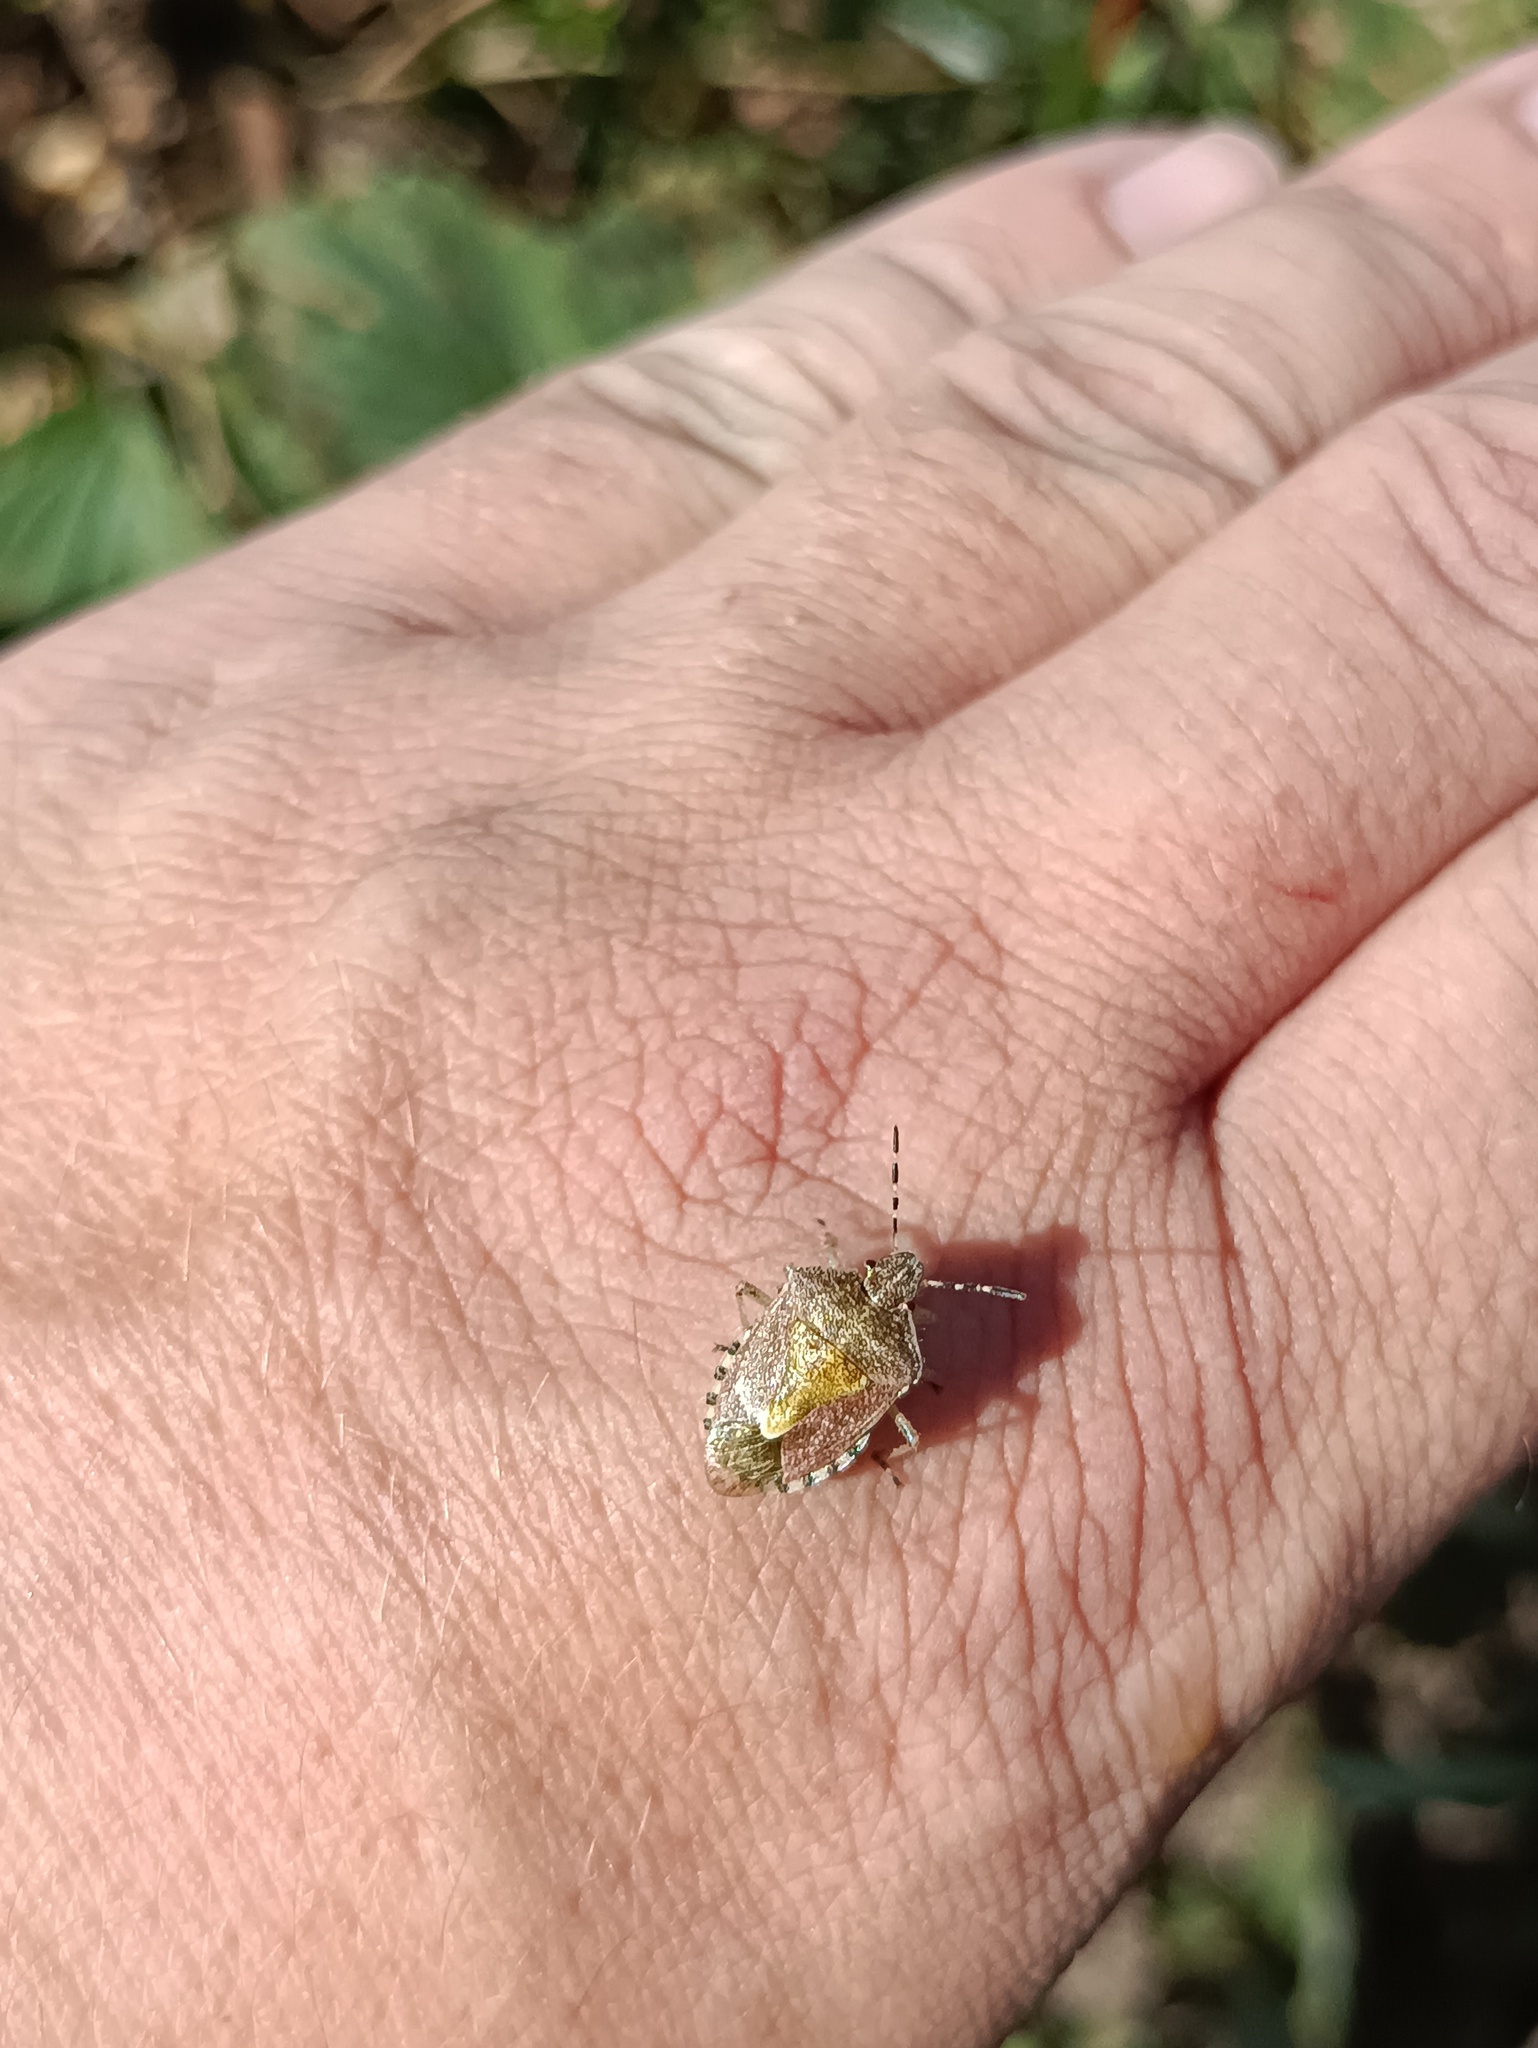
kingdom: Animalia
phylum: Arthropoda
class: Insecta
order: Hemiptera
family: Pentatomidae
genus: Dolycoris
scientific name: Dolycoris baccarum
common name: Sloe bug
